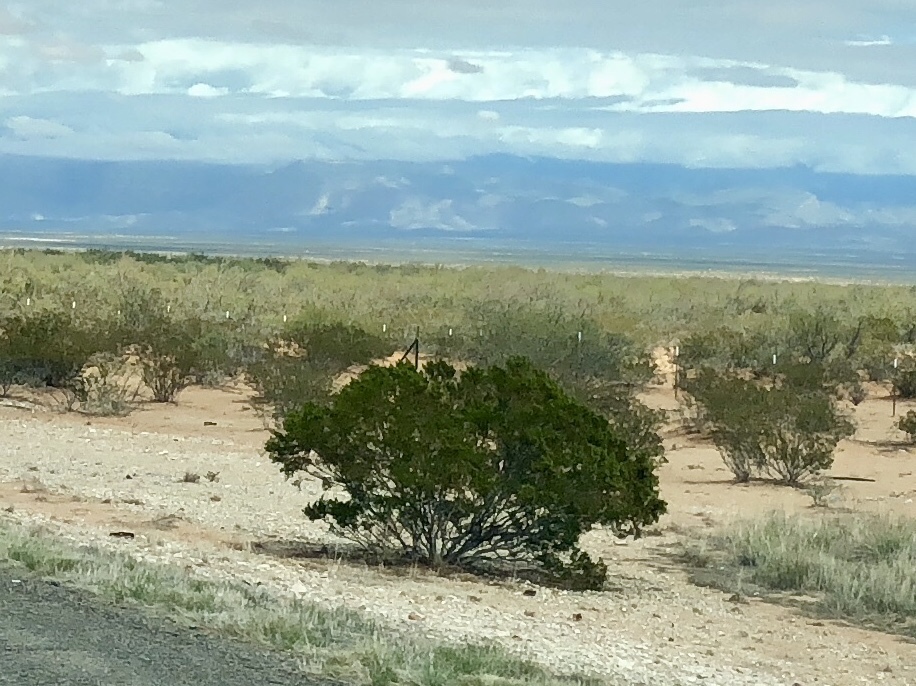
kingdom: Plantae
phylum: Tracheophyta
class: Magnoliopsida
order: Zygophyllales
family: Zygophyllaceae
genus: Larrea
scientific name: Larrea tridentata
